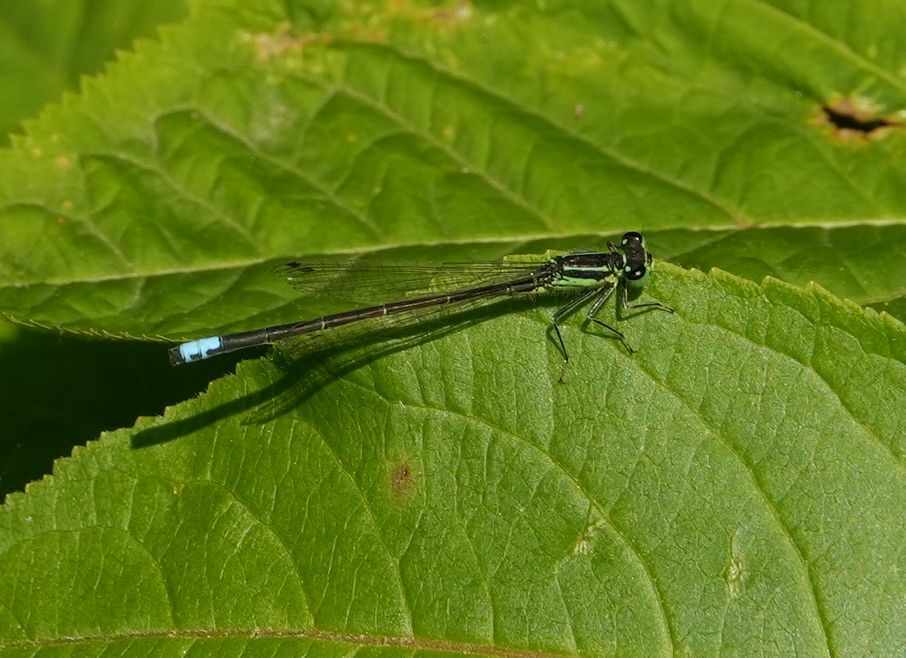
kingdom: Animalia
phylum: Arthropoda
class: Insecta
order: Odonata
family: Coenagrionidae
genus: Ischnura
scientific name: Ischnura verticalis
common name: Eastern forktail
